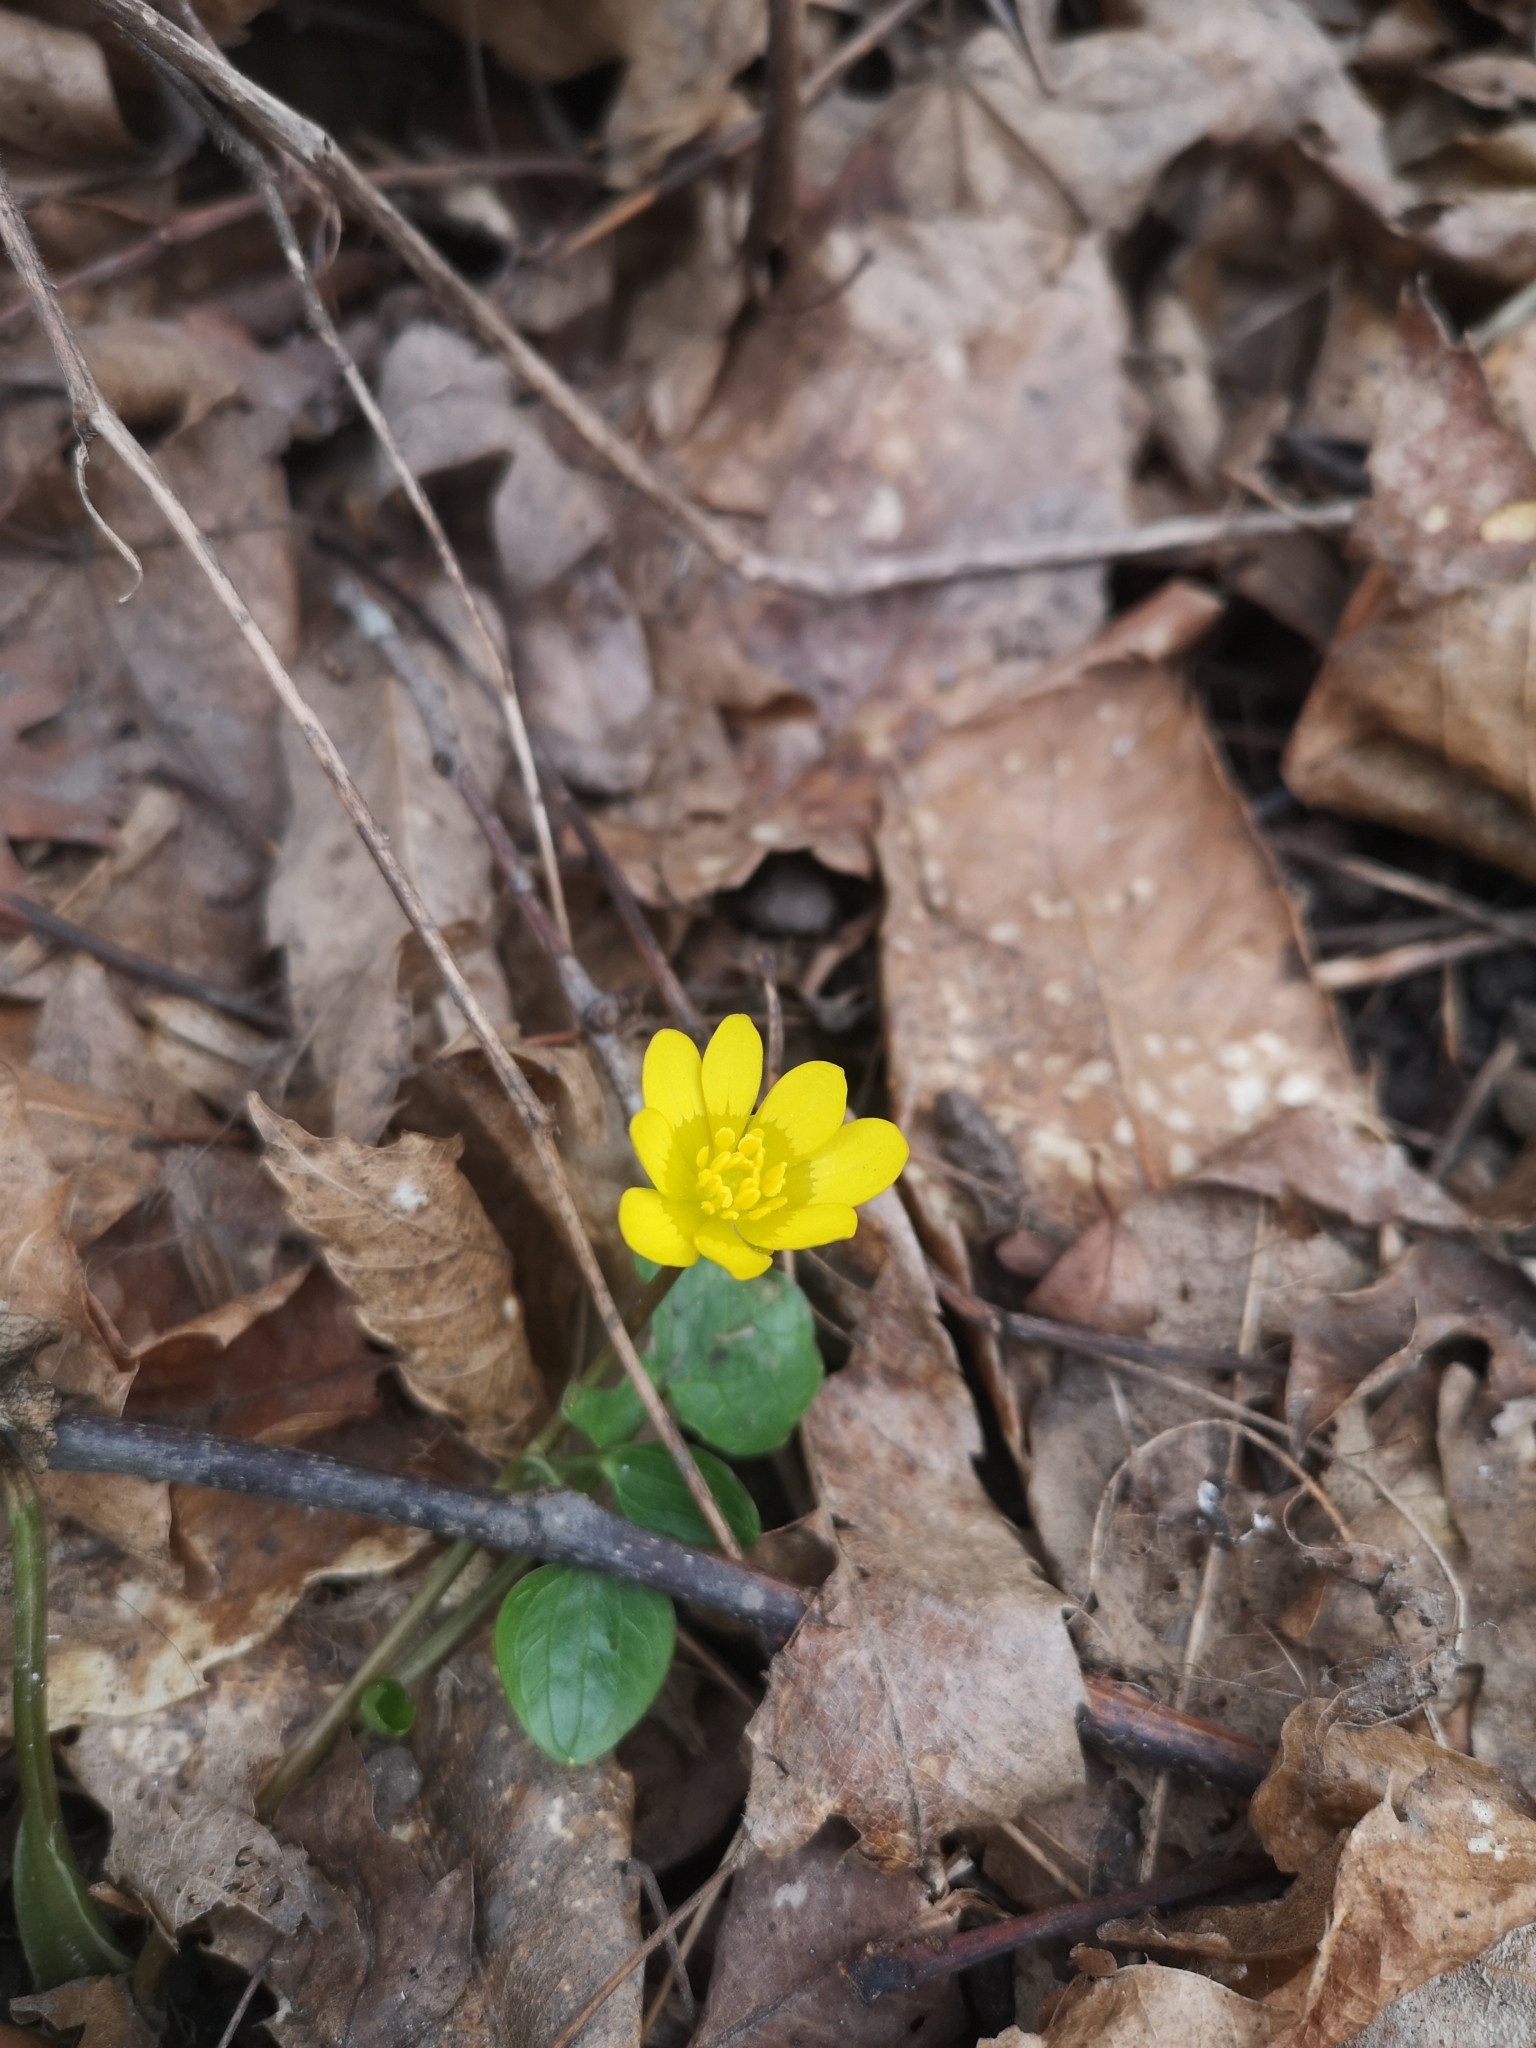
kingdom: Plantae
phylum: Tracheophyta
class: Magnoliopsida
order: Ranunculales
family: Ranunculaceae
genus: Ficaria
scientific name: Ficaria verna
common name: Lesser celandine
